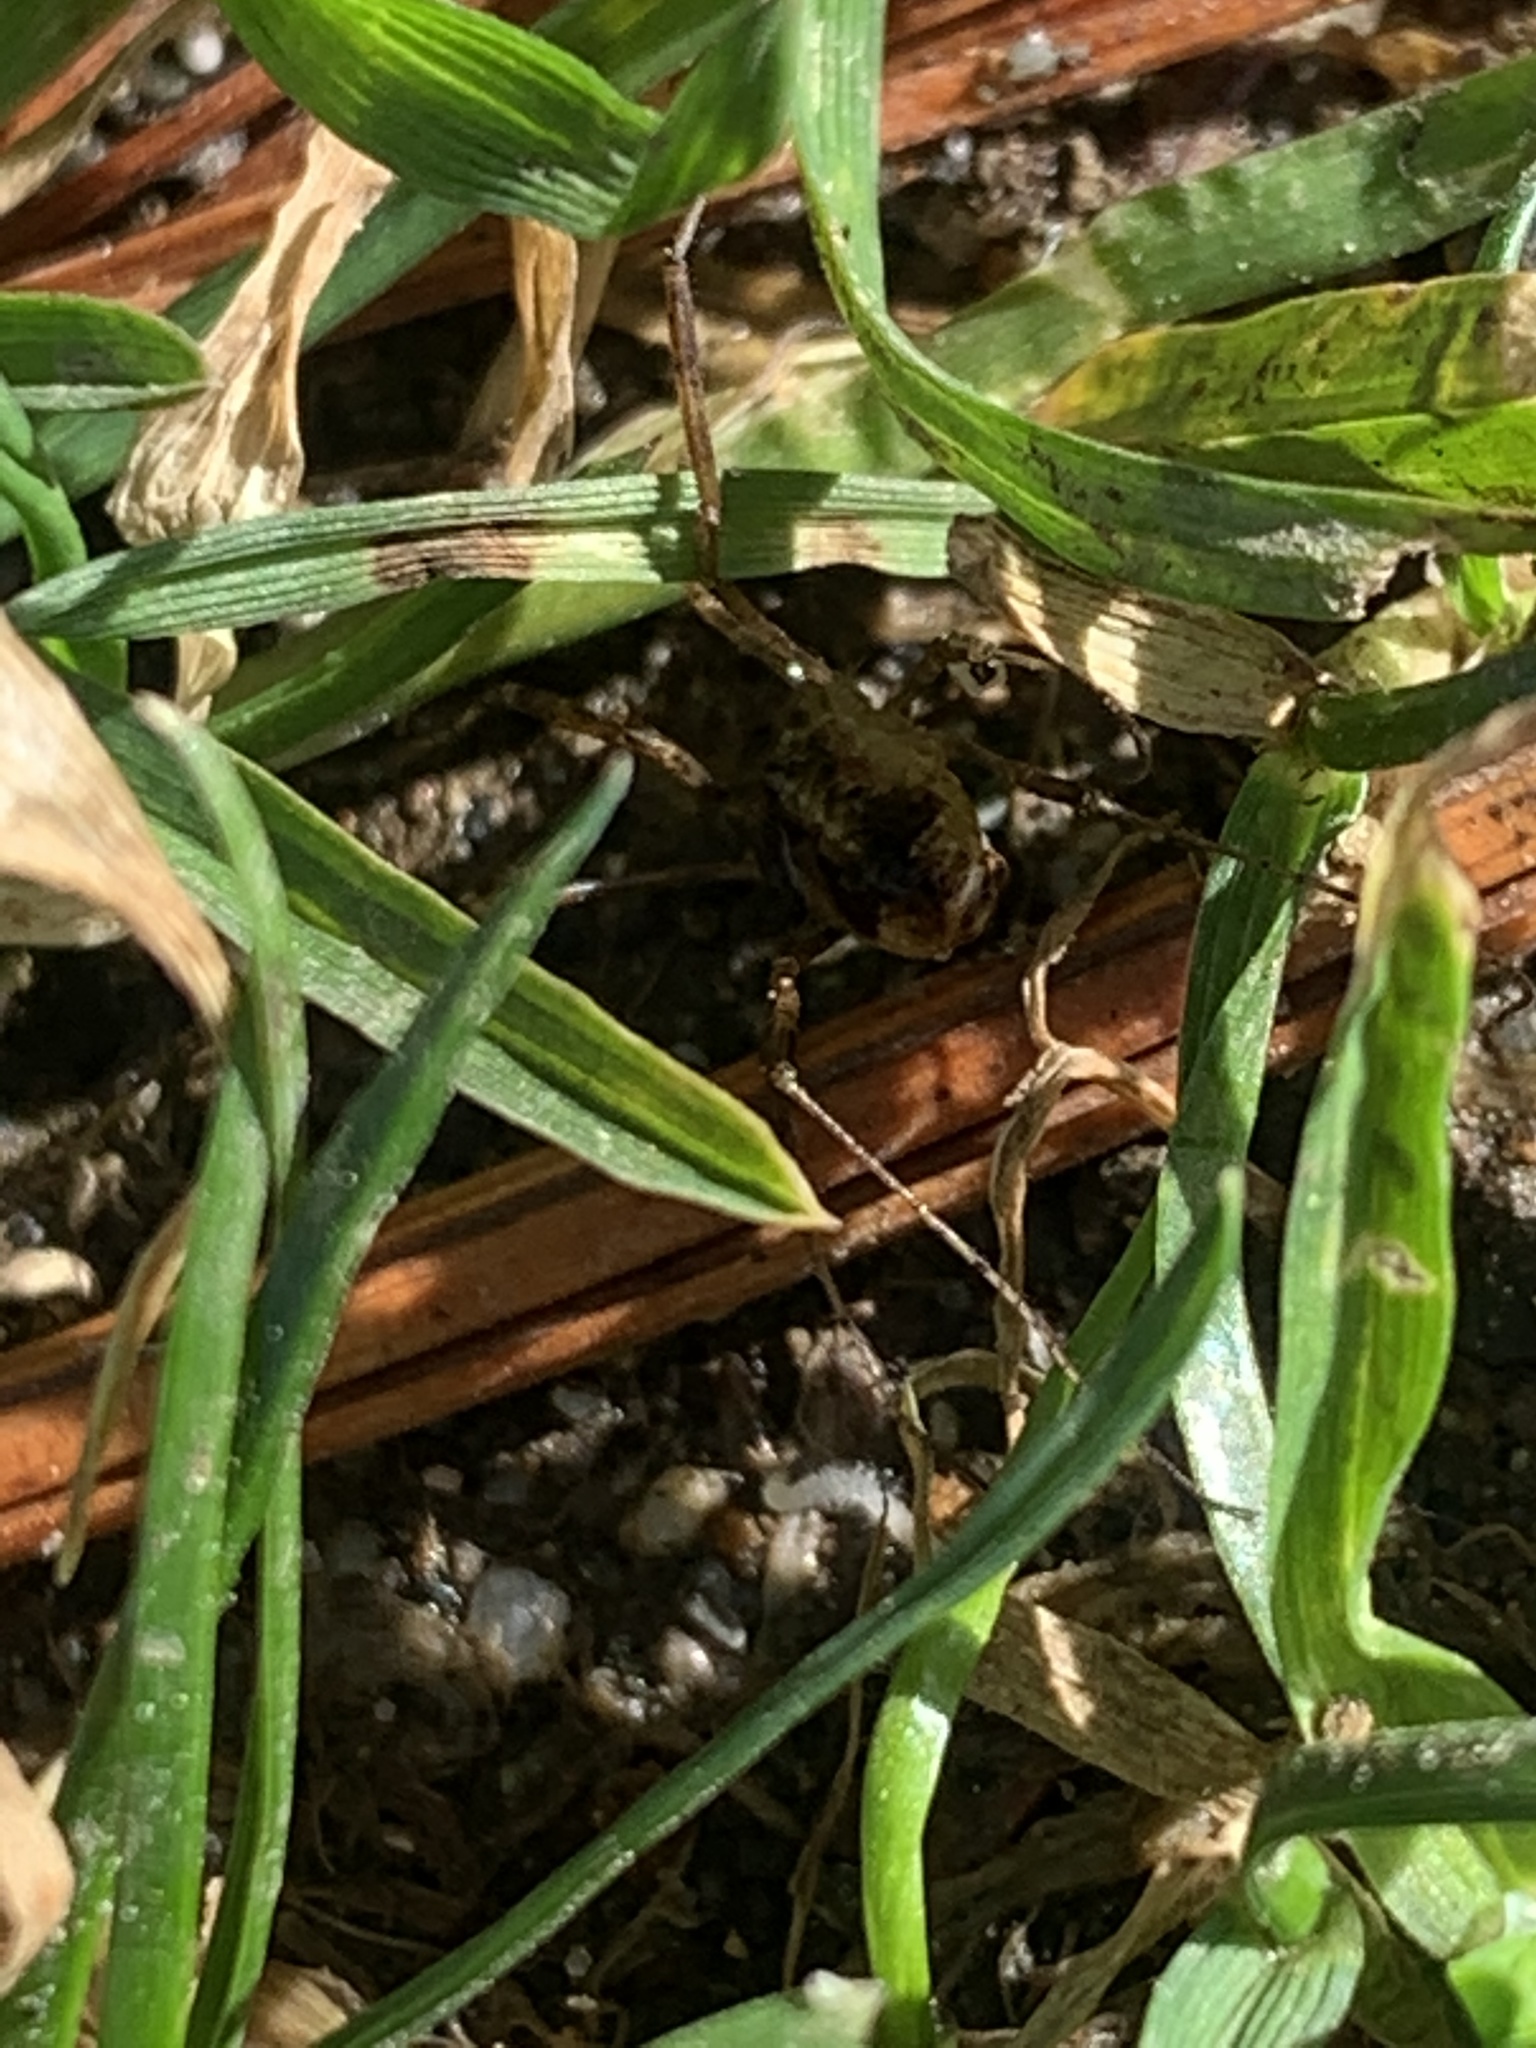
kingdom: Animalia
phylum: Arthropoda
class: Arachnida
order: Opiliones
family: Phalangiidae
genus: Paroligolophus
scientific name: Paroligolophus agrestis
